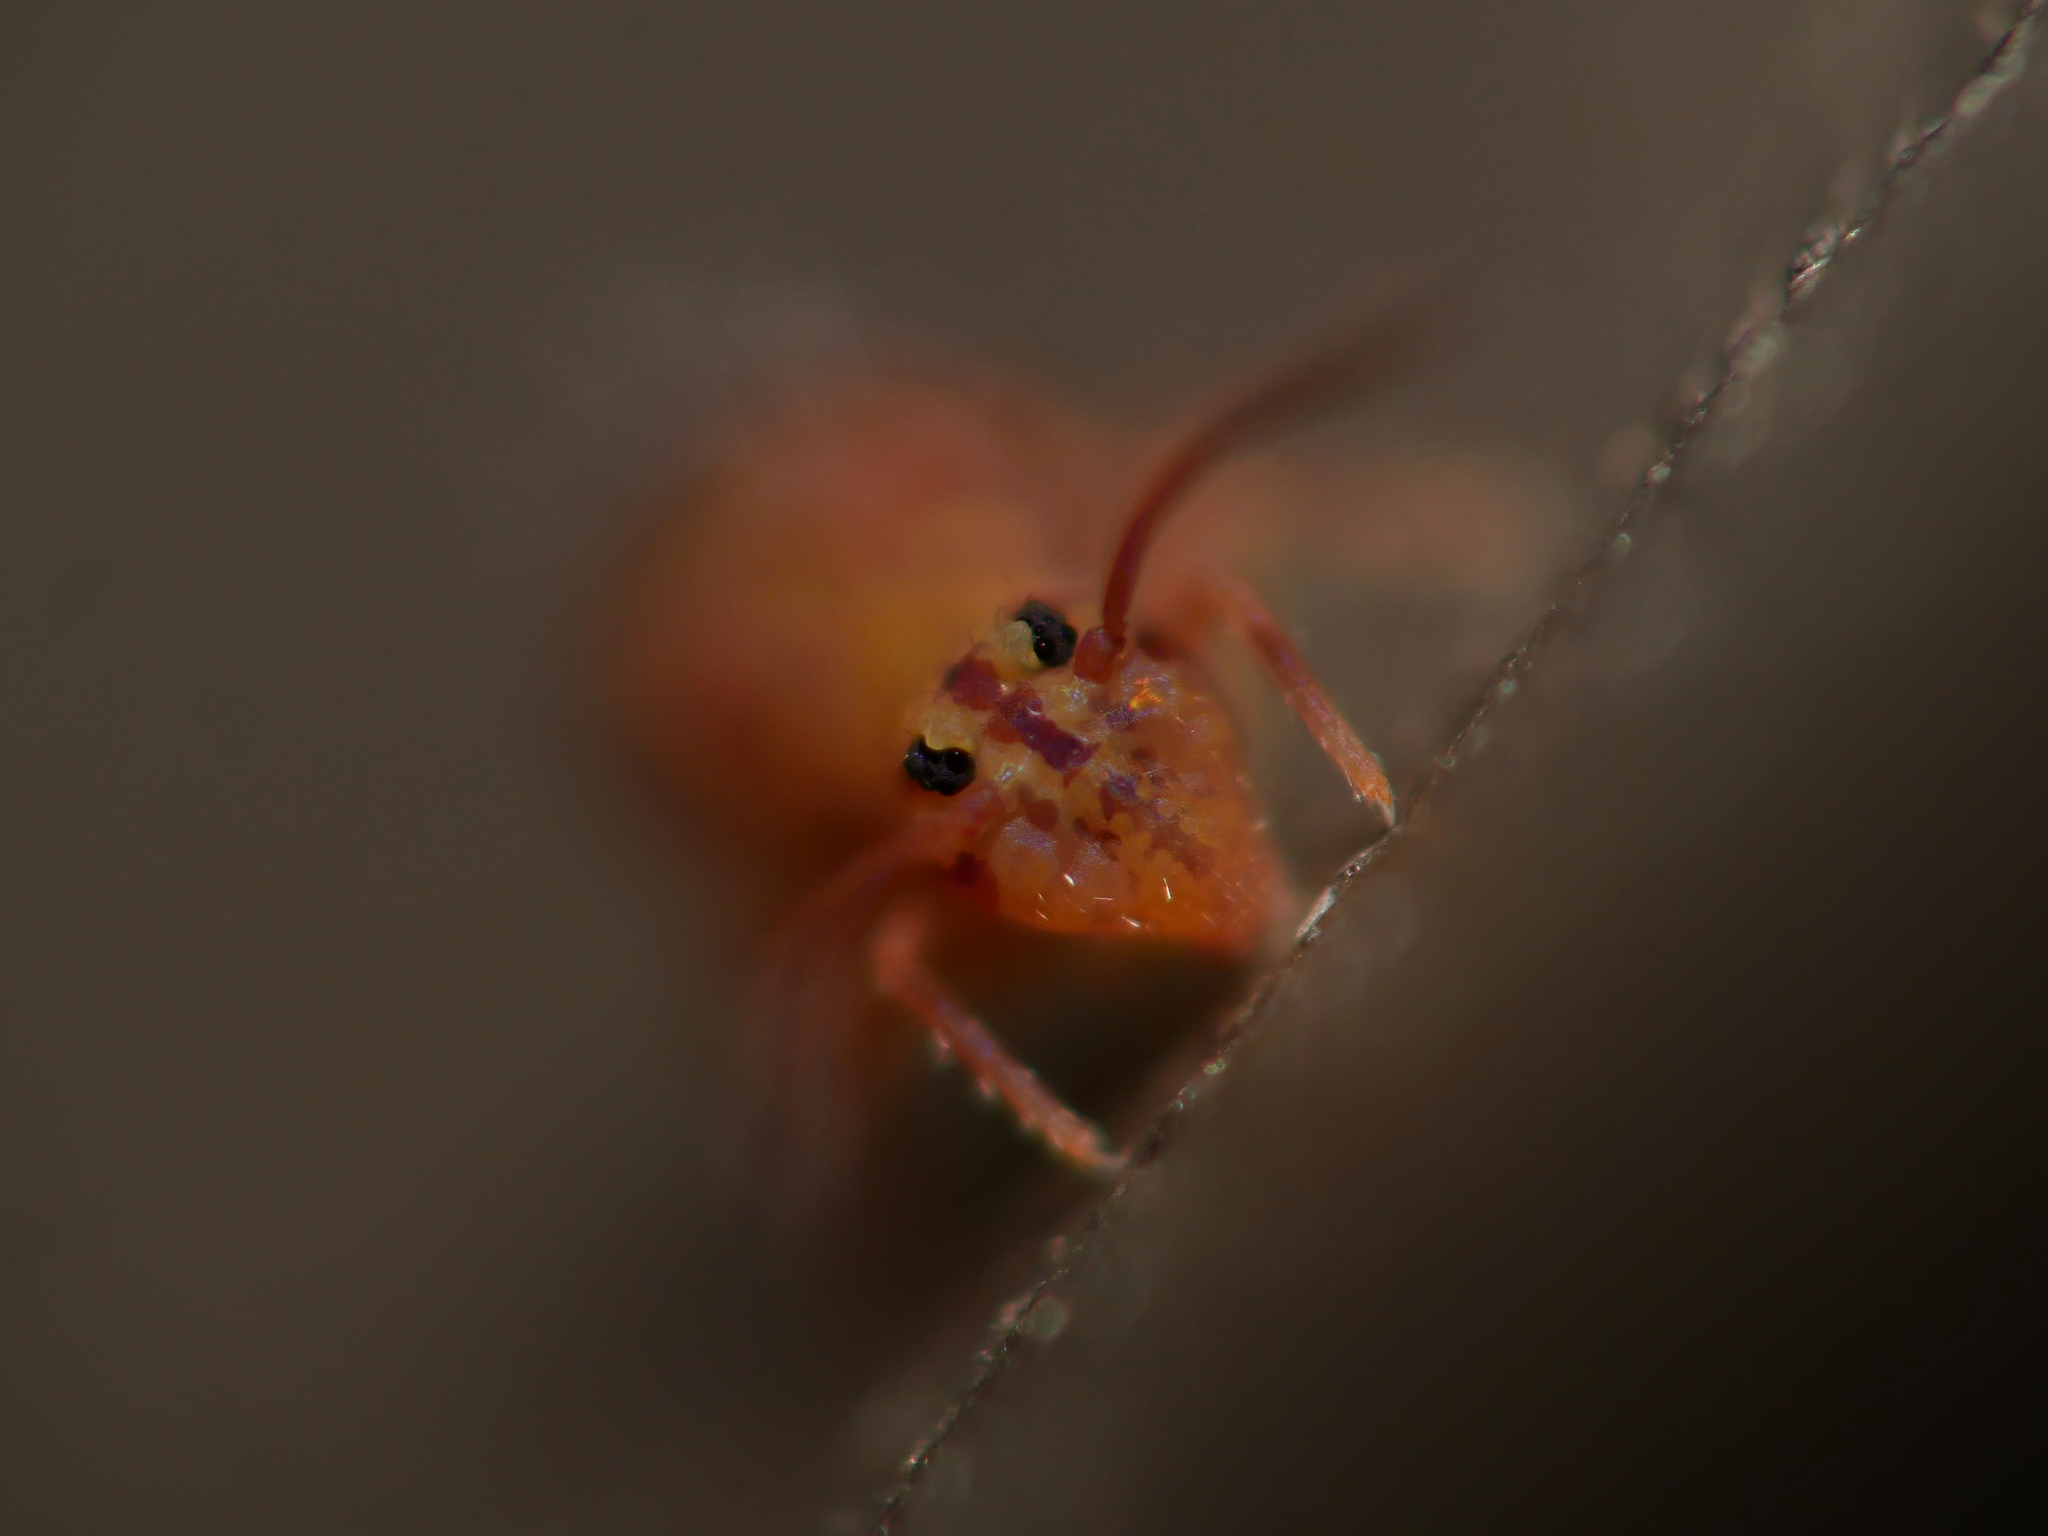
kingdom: Animalia
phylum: Arthropoda
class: Collembola
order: Symphypleona
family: Dicyrtomidae
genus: Dicyrtomina
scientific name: Dicyrtomina ornata
